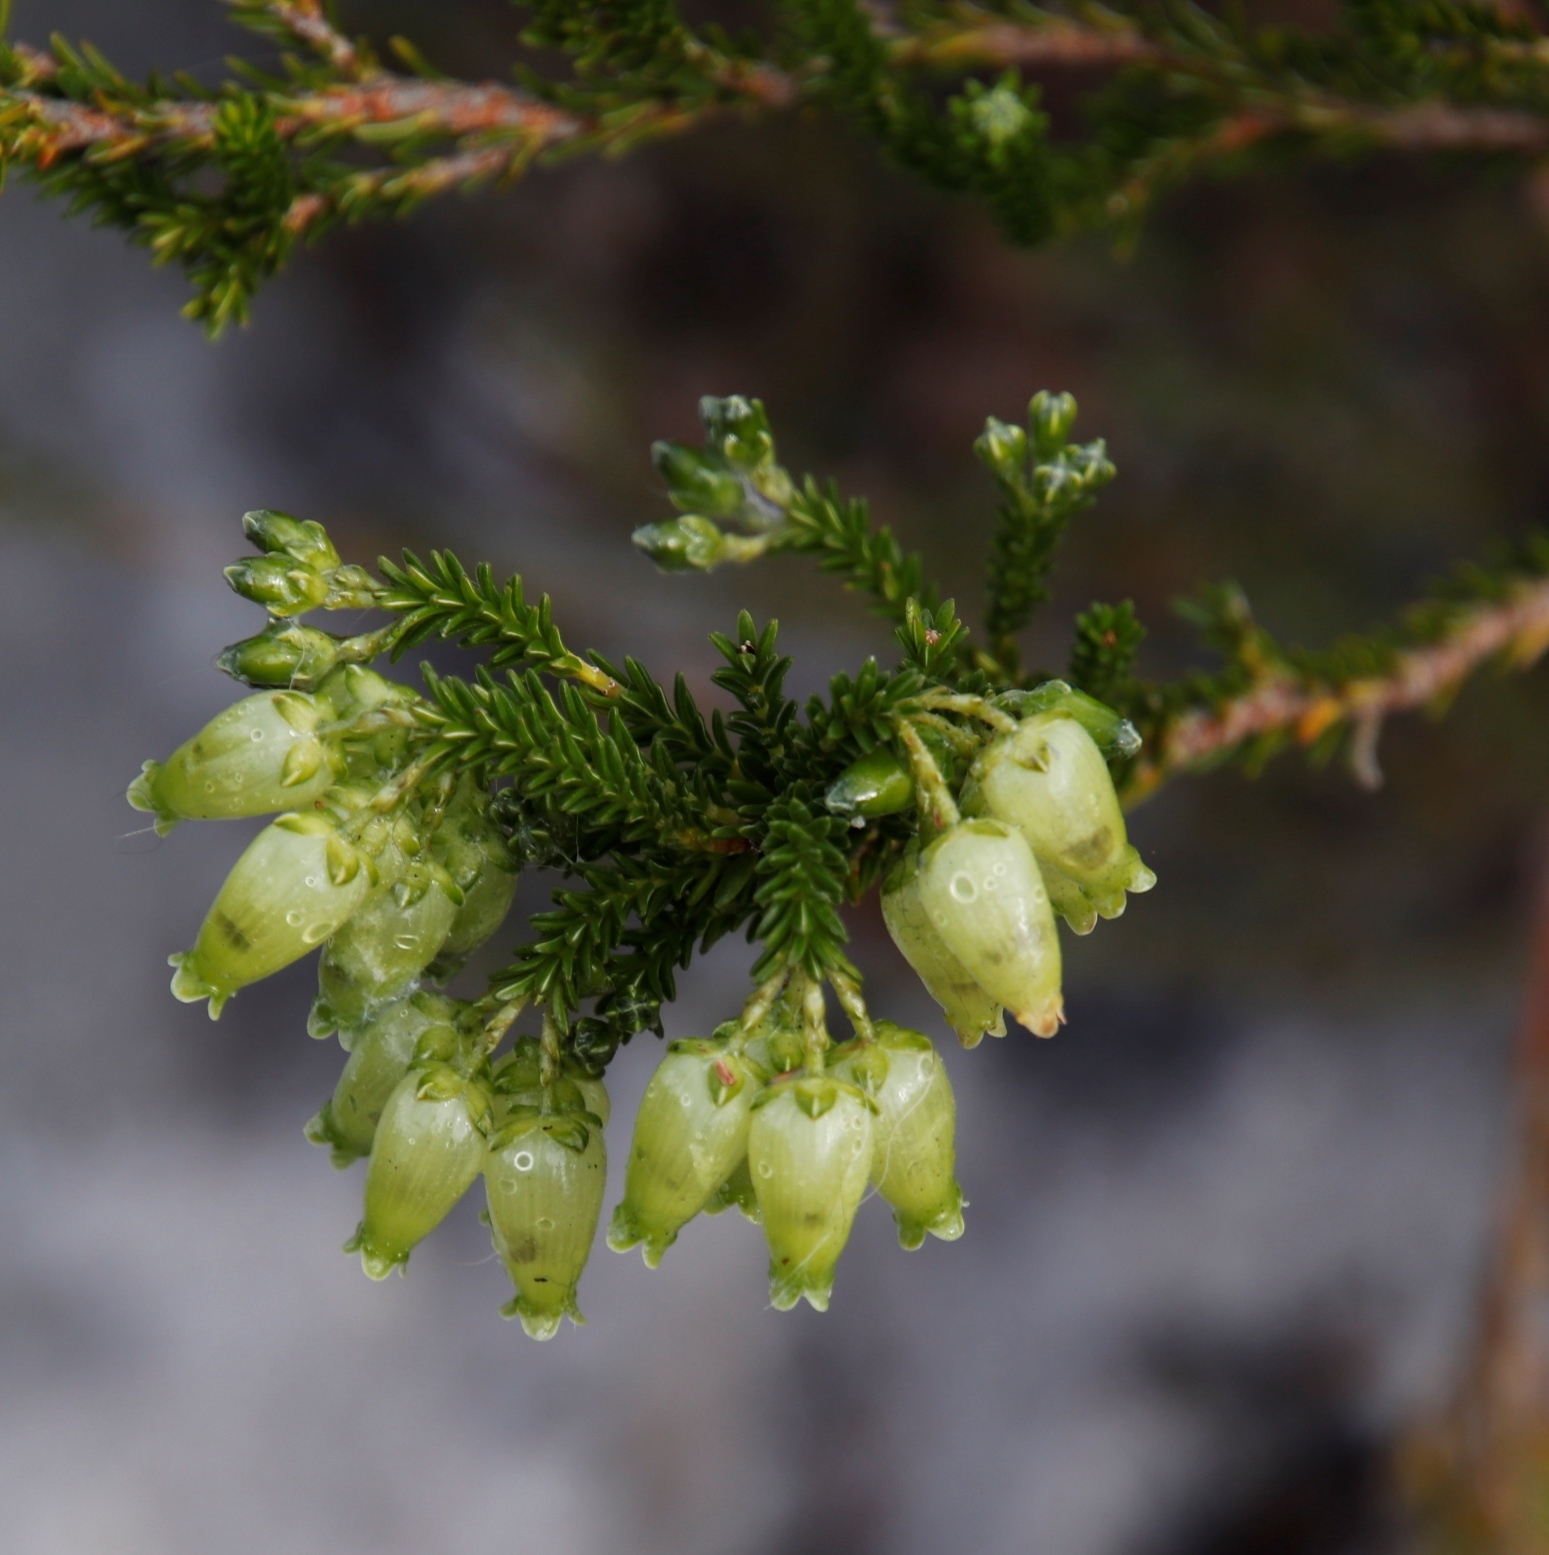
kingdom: Plantae
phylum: Tracheophyta
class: Magnoliopsida
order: Ericales
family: Ericaceae
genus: Erica
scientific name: Erica urna-viridis
